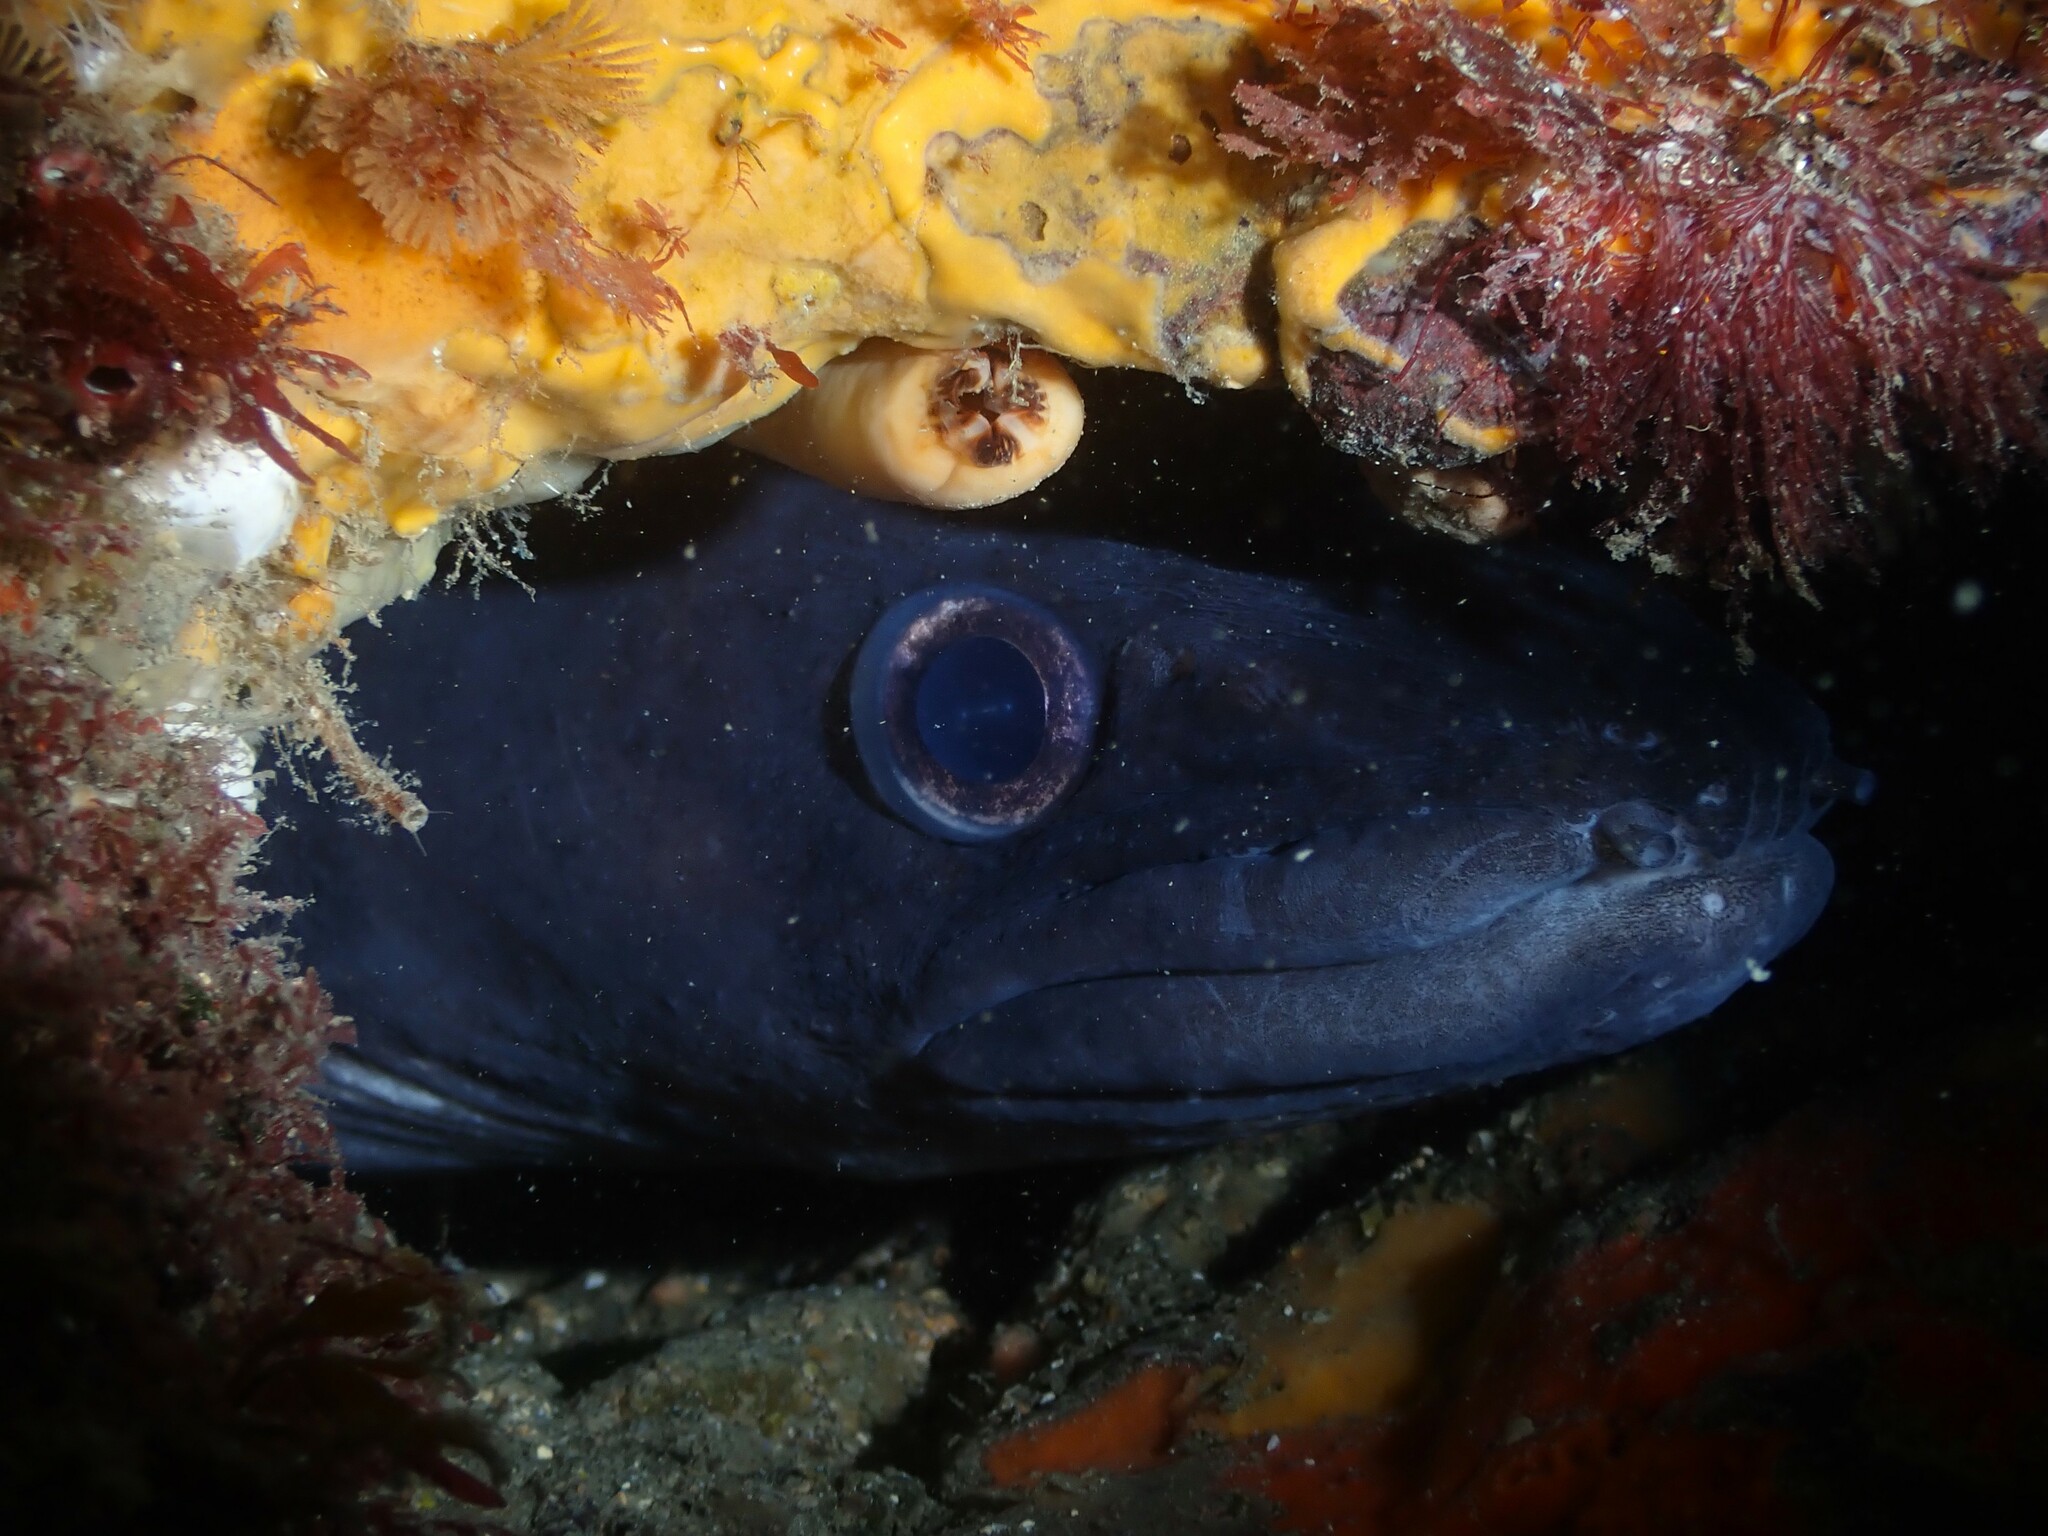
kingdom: Animalia
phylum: Chordata
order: Anguilliformes
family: Congridae
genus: Conger
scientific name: Conger verreauxi
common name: Conger eel
